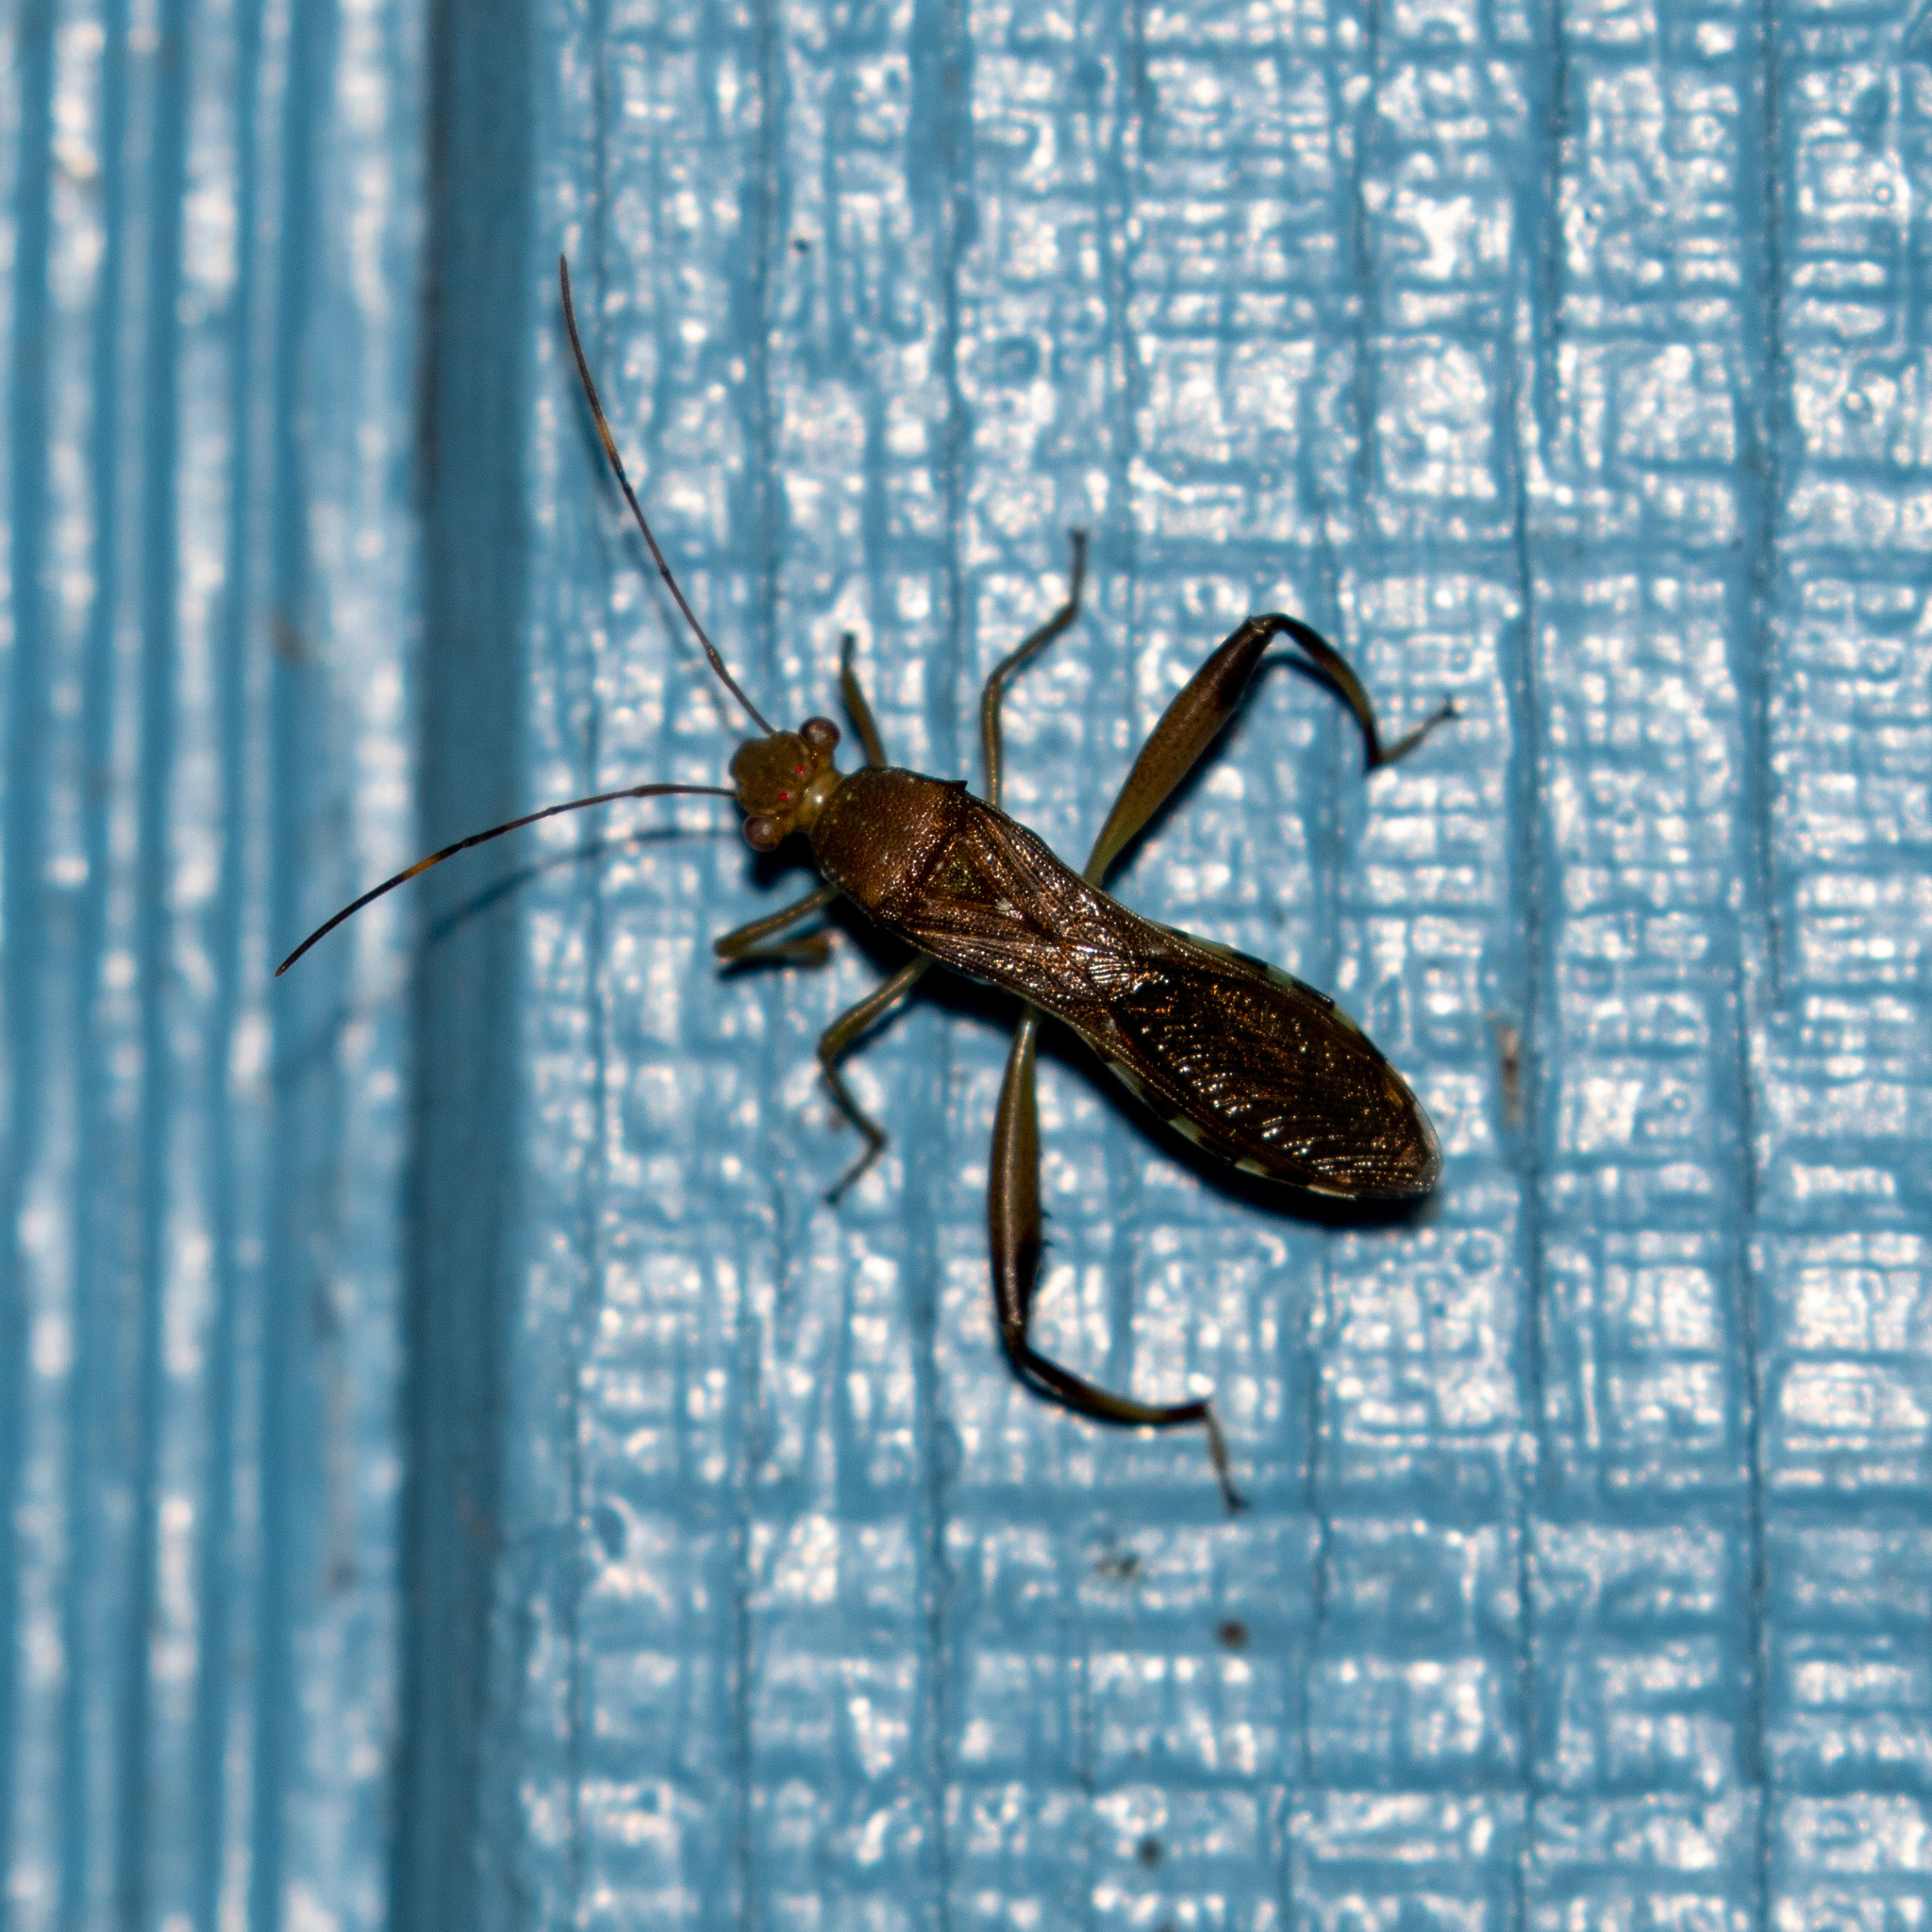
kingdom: Animalia
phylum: Arthropoda
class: Insecta
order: Hemiptera
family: Alydidae
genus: Hyalymenus
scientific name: Hyalymenus tarsatus
